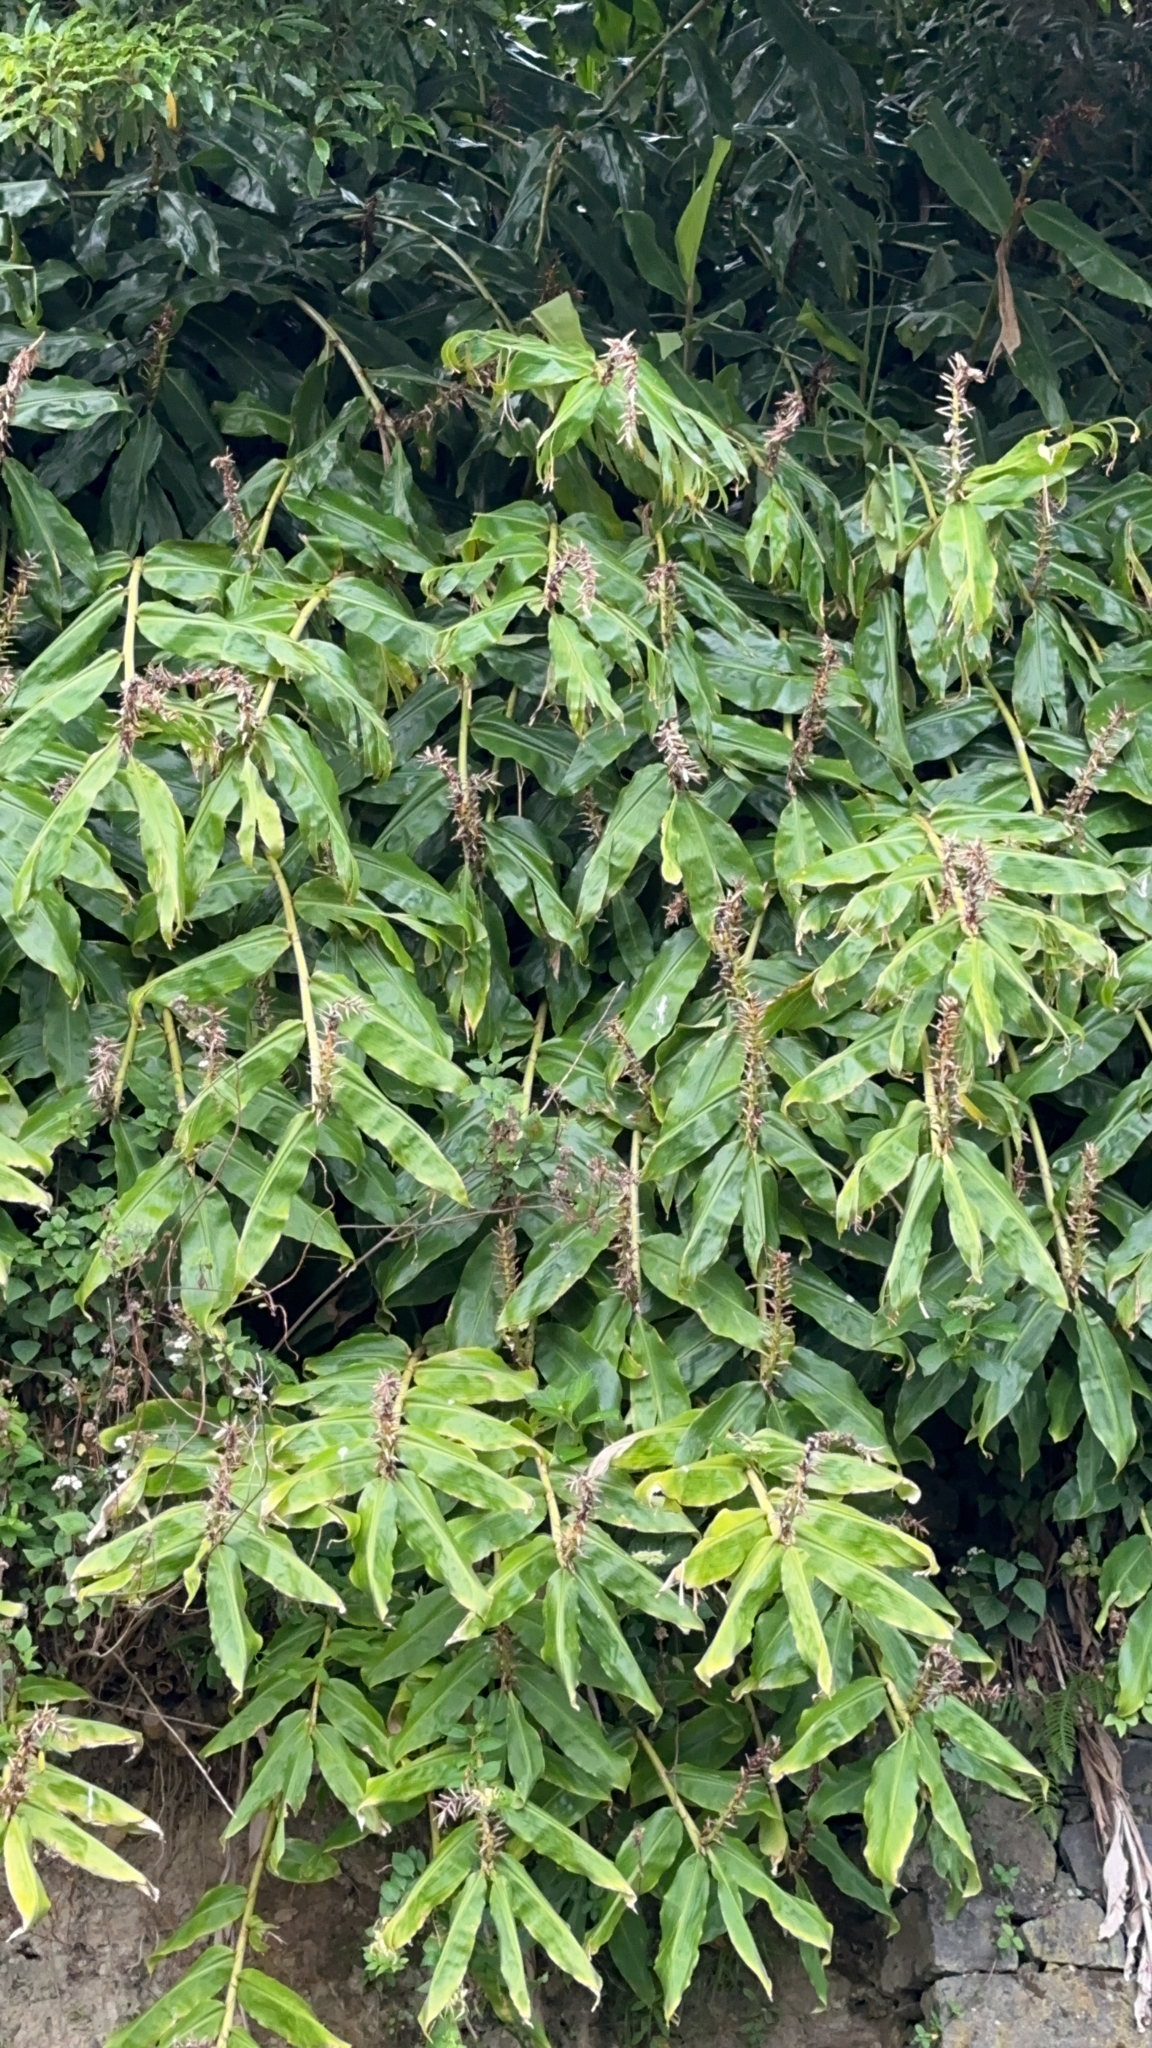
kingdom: Plantae
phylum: Tracheophyta
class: Liliopsida
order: Zingiberales
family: Zingiberaceae
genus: Hedychium
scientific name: Hedychium gardnerianum
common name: Himalayan ginger
